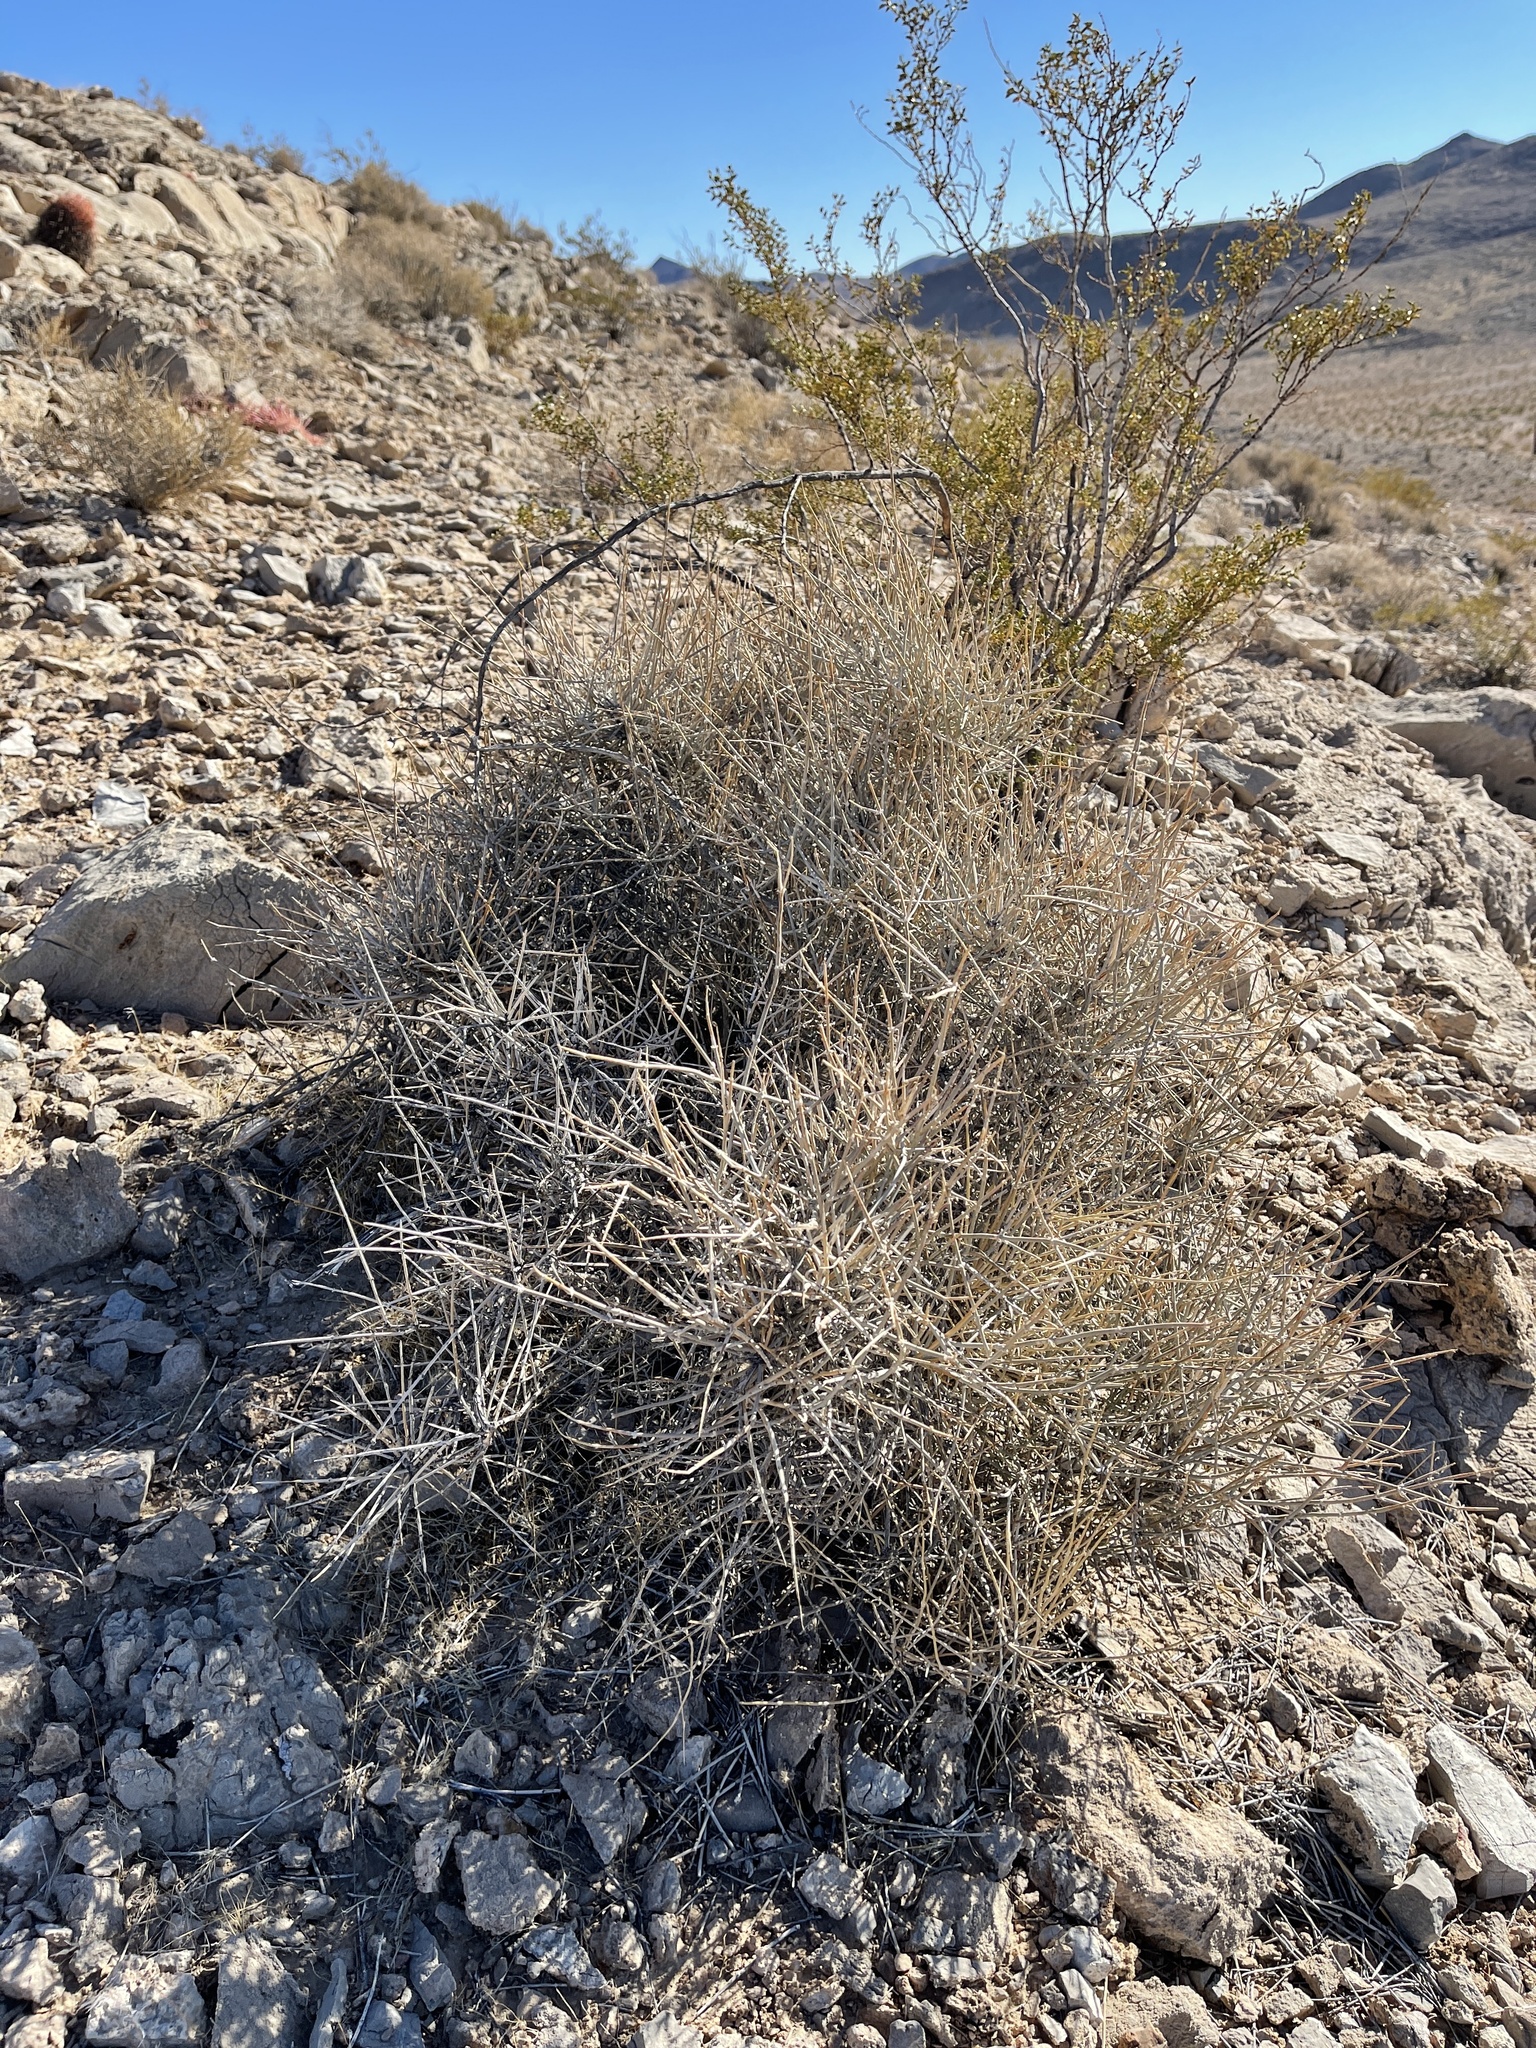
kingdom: Plantae
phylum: Tracheophyta
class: Gnetopsida
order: Ephedrales
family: Ephedraceae
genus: Ephedra
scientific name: Ephedra nevadensis
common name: Gray ephedra
